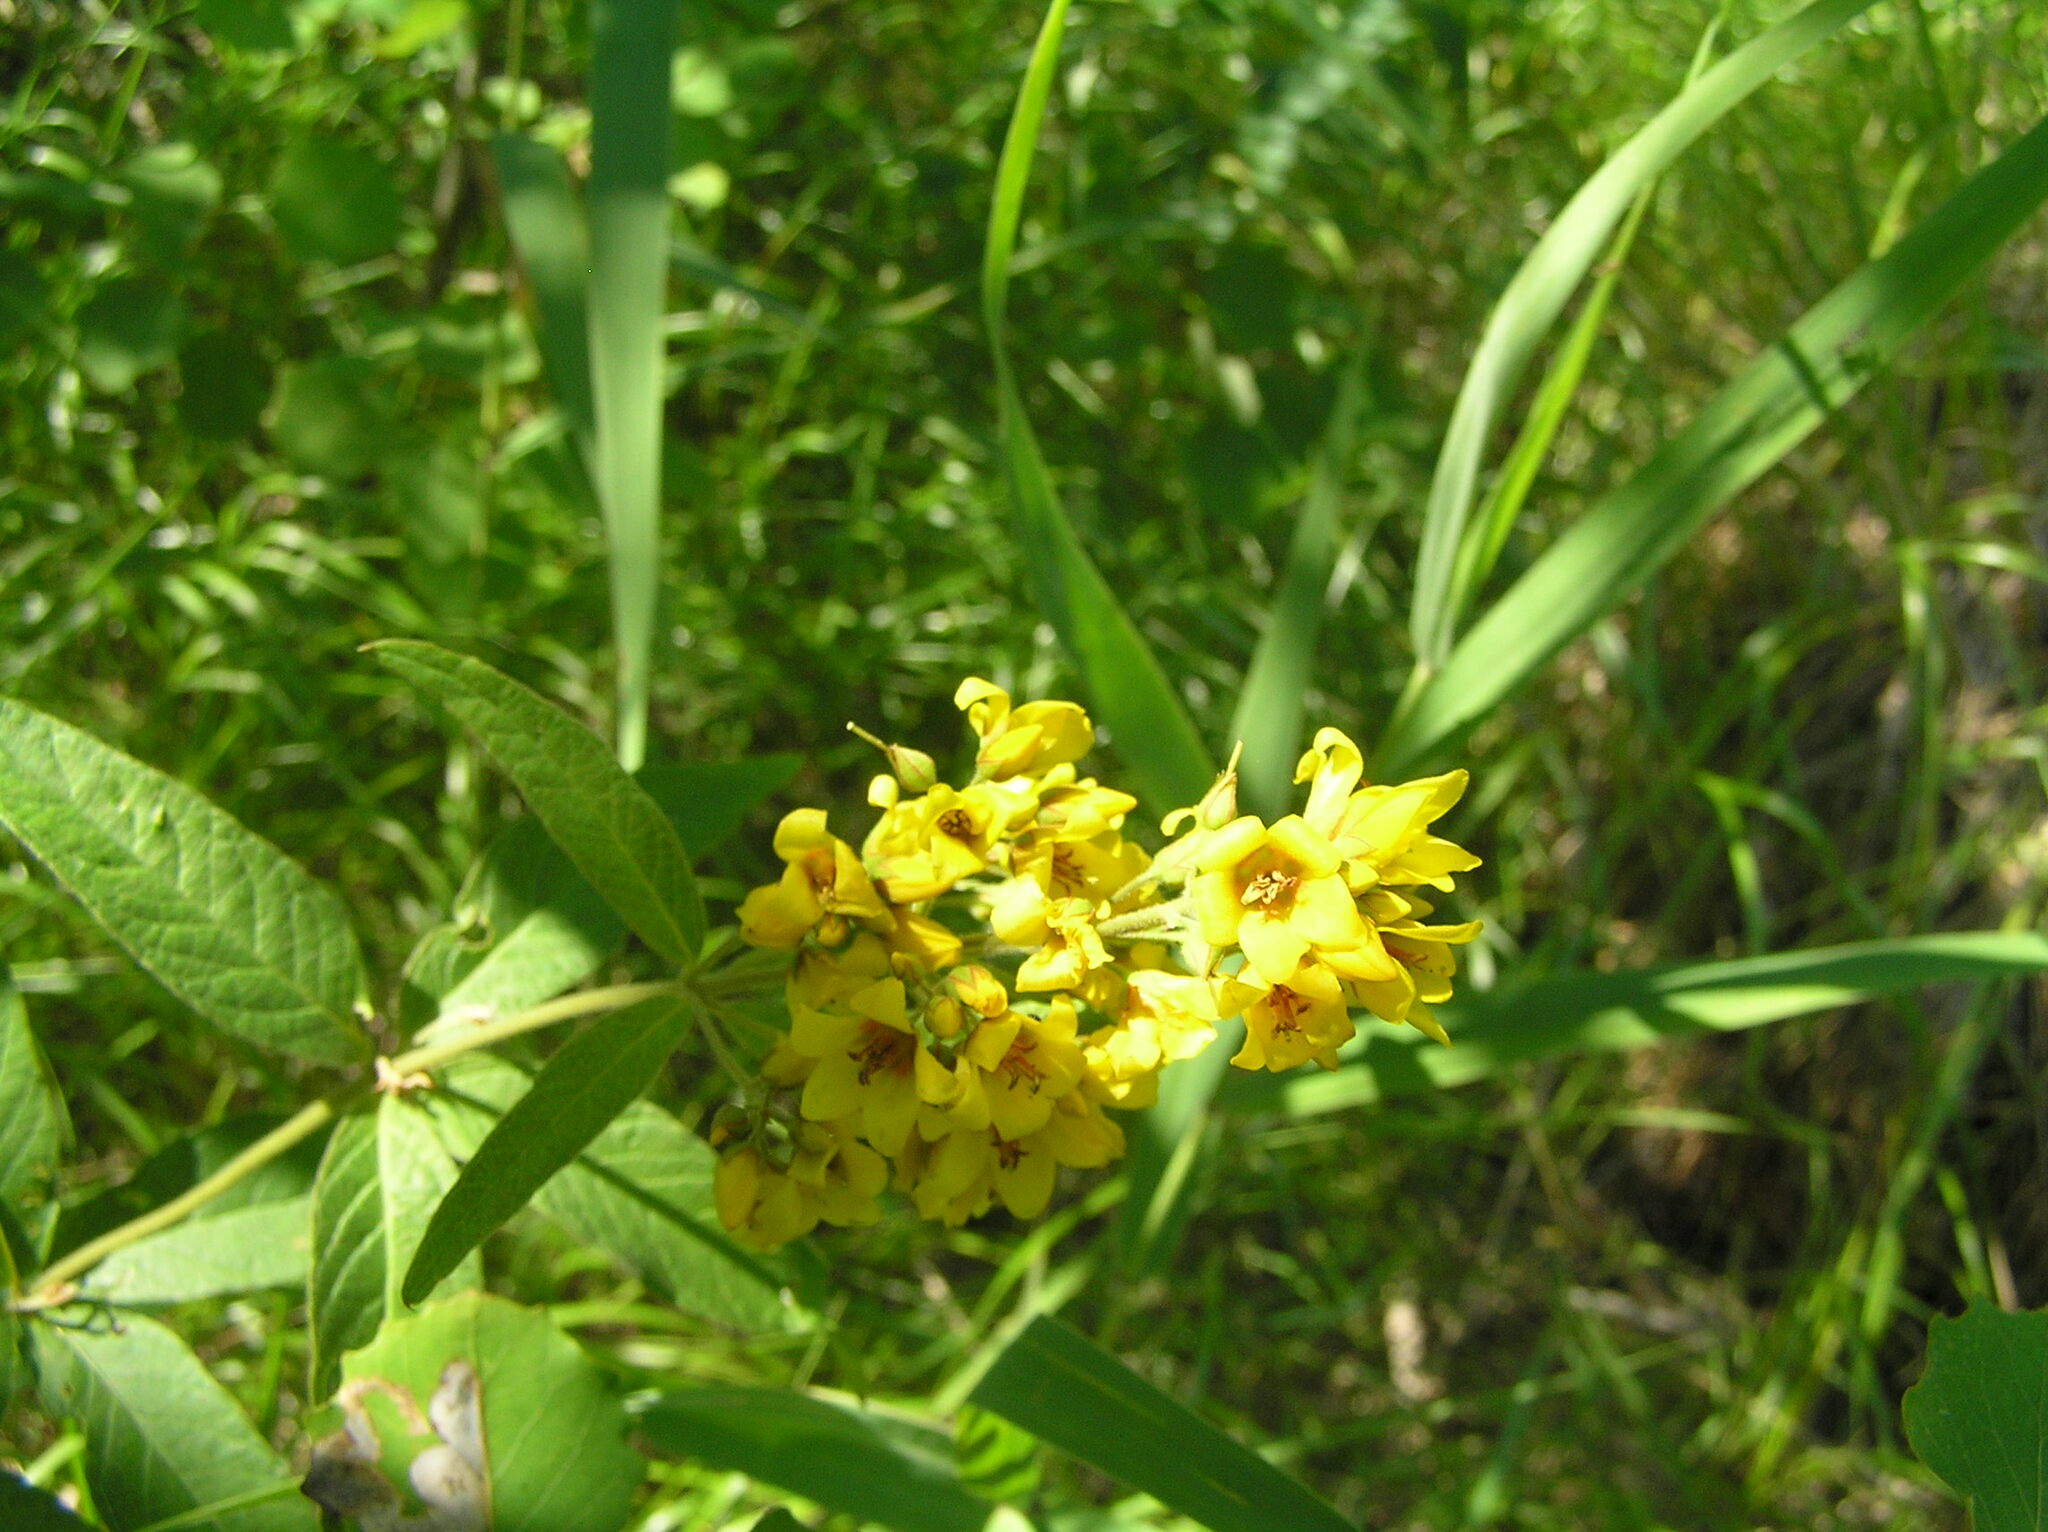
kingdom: Plantae
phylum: Tracheophyta
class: Magnoliopsida
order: Ericales
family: Primulaceae
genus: Lysimachia
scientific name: Lysimachia vulgaris
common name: Yellow loosestrife
